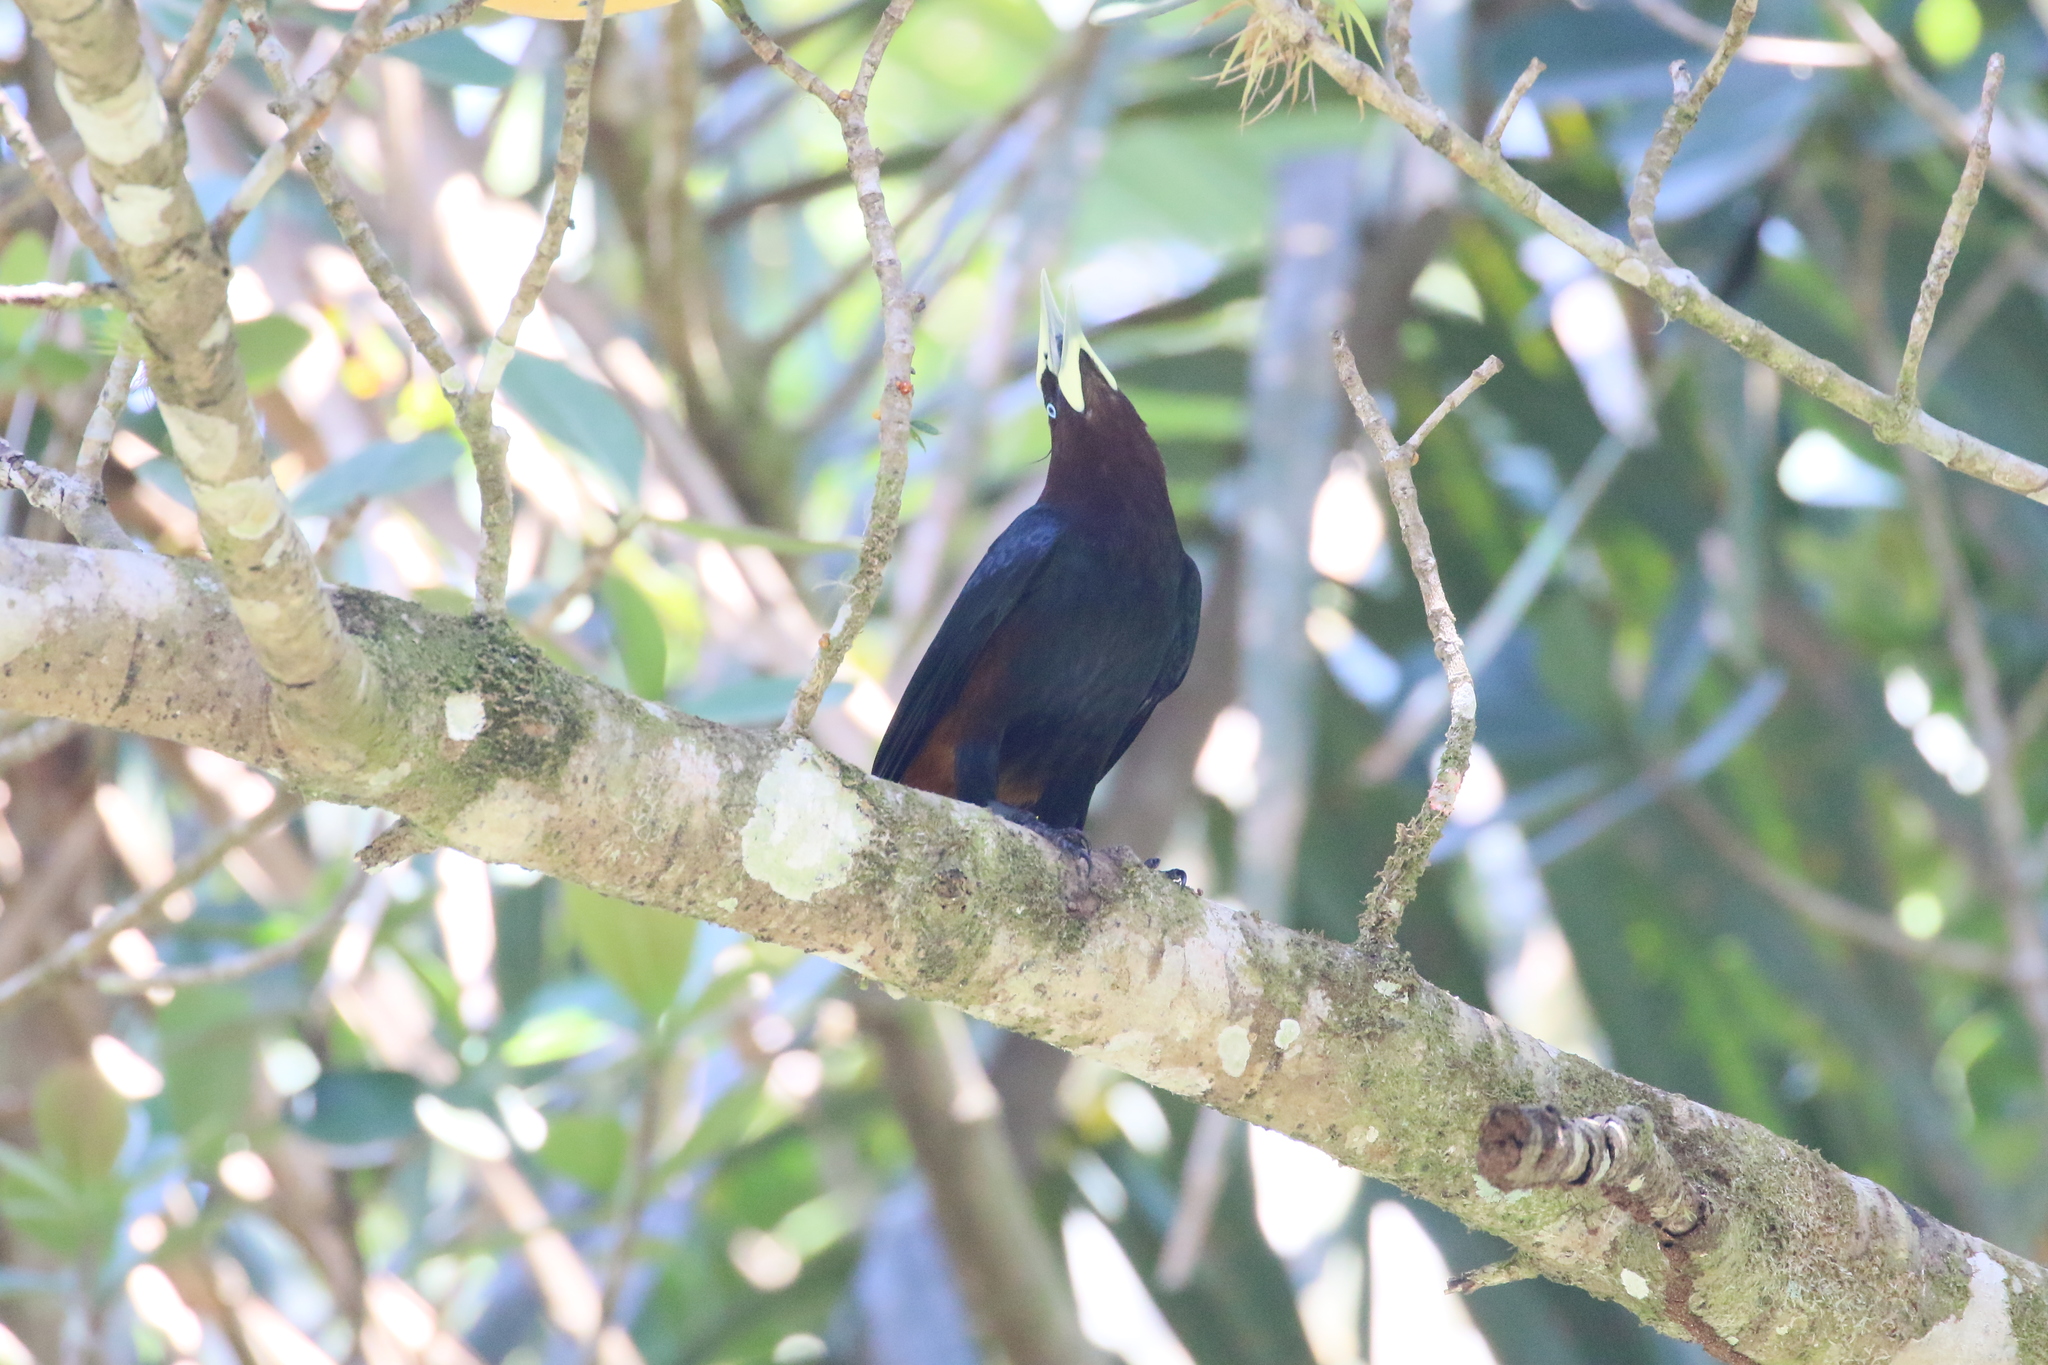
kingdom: Animalia
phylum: Chordata
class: Aves
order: Passeriformes
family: Icteridae
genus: Psarocolius
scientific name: Psarocolius wagleri
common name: Chestnut-headed oropendola
